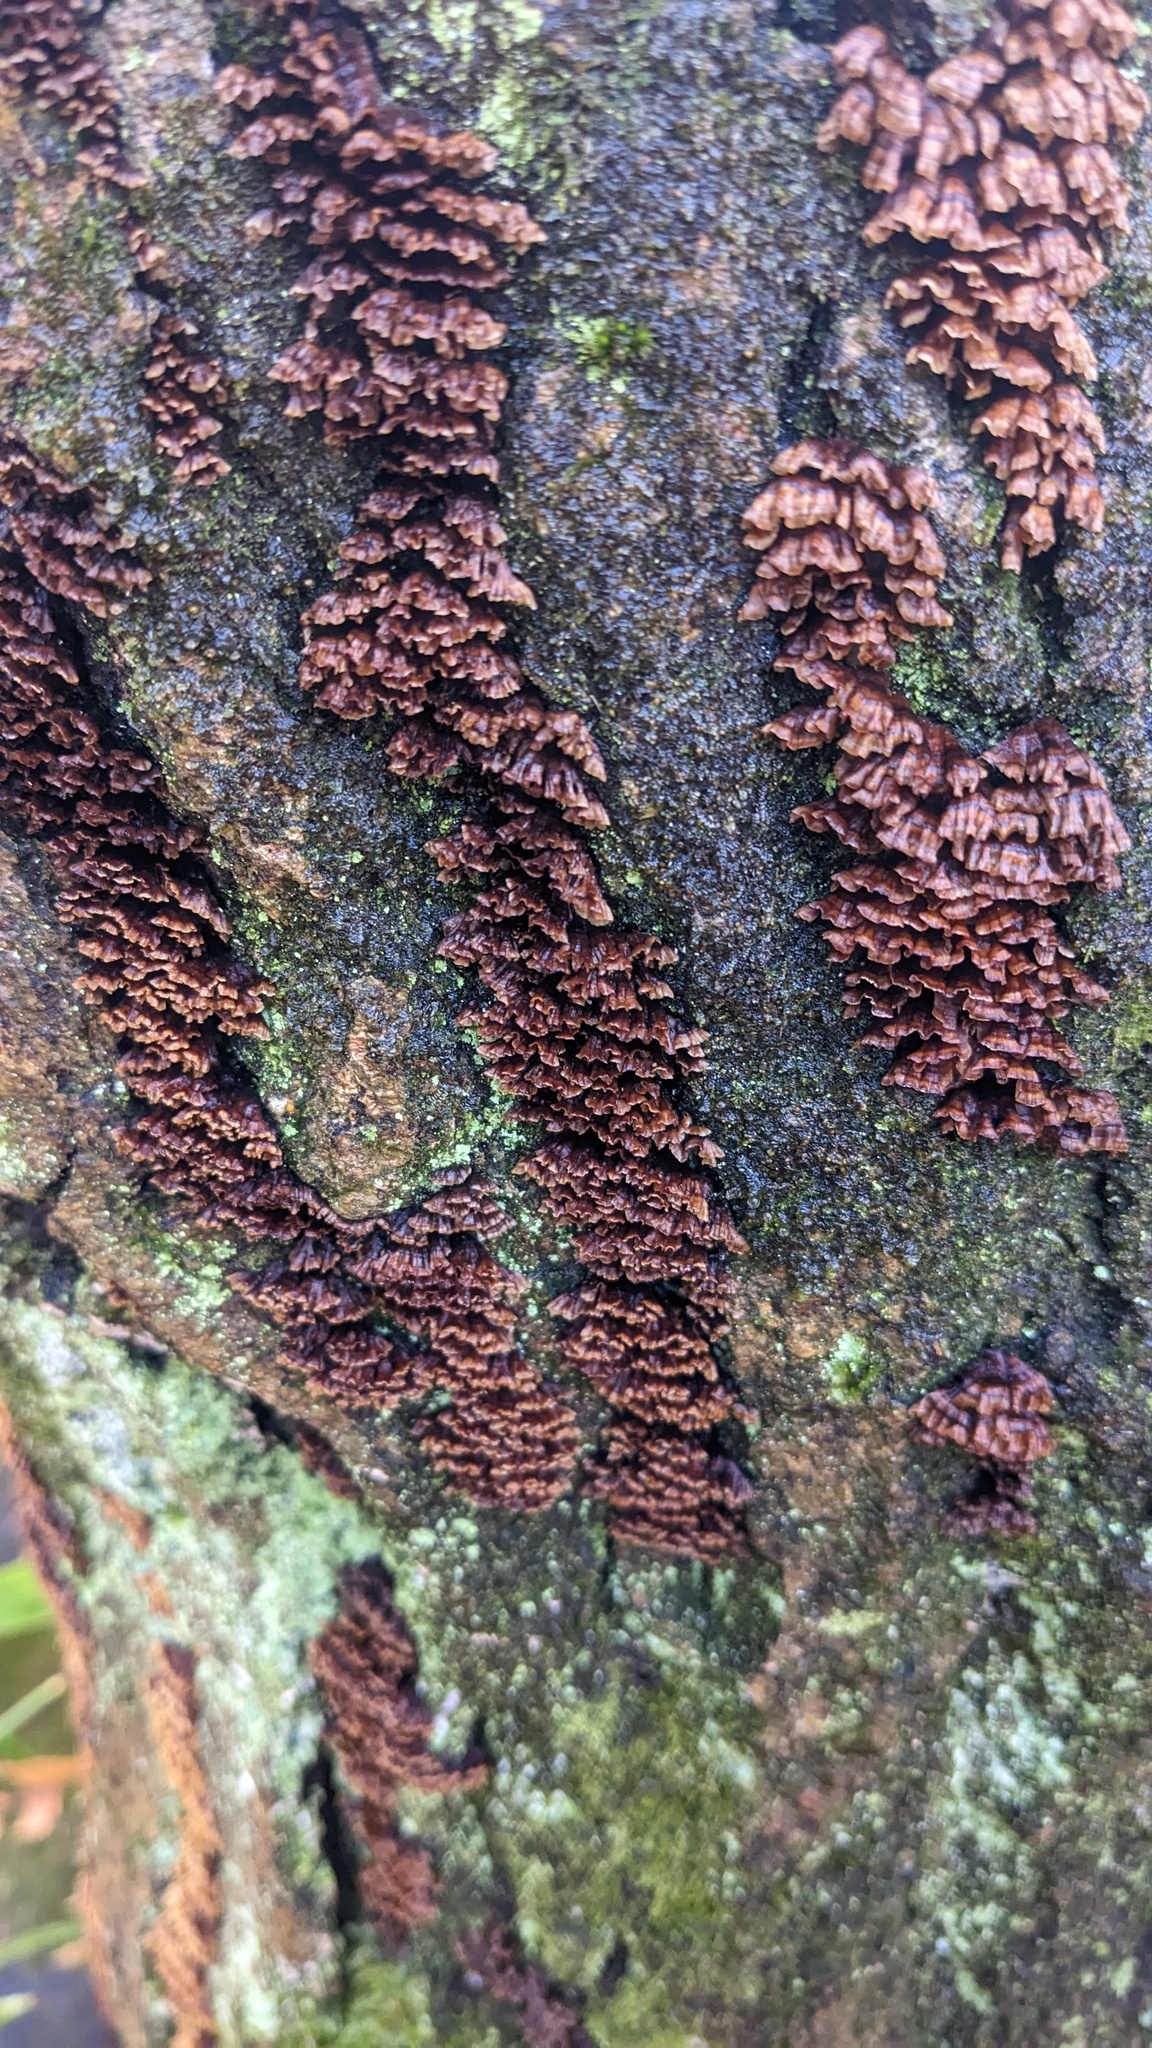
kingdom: Fungi
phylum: Basidiomycota
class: Agaricomycetes
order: Russulales
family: Stereaceae
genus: Xylobolus
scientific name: Xylobolus spectabilis
